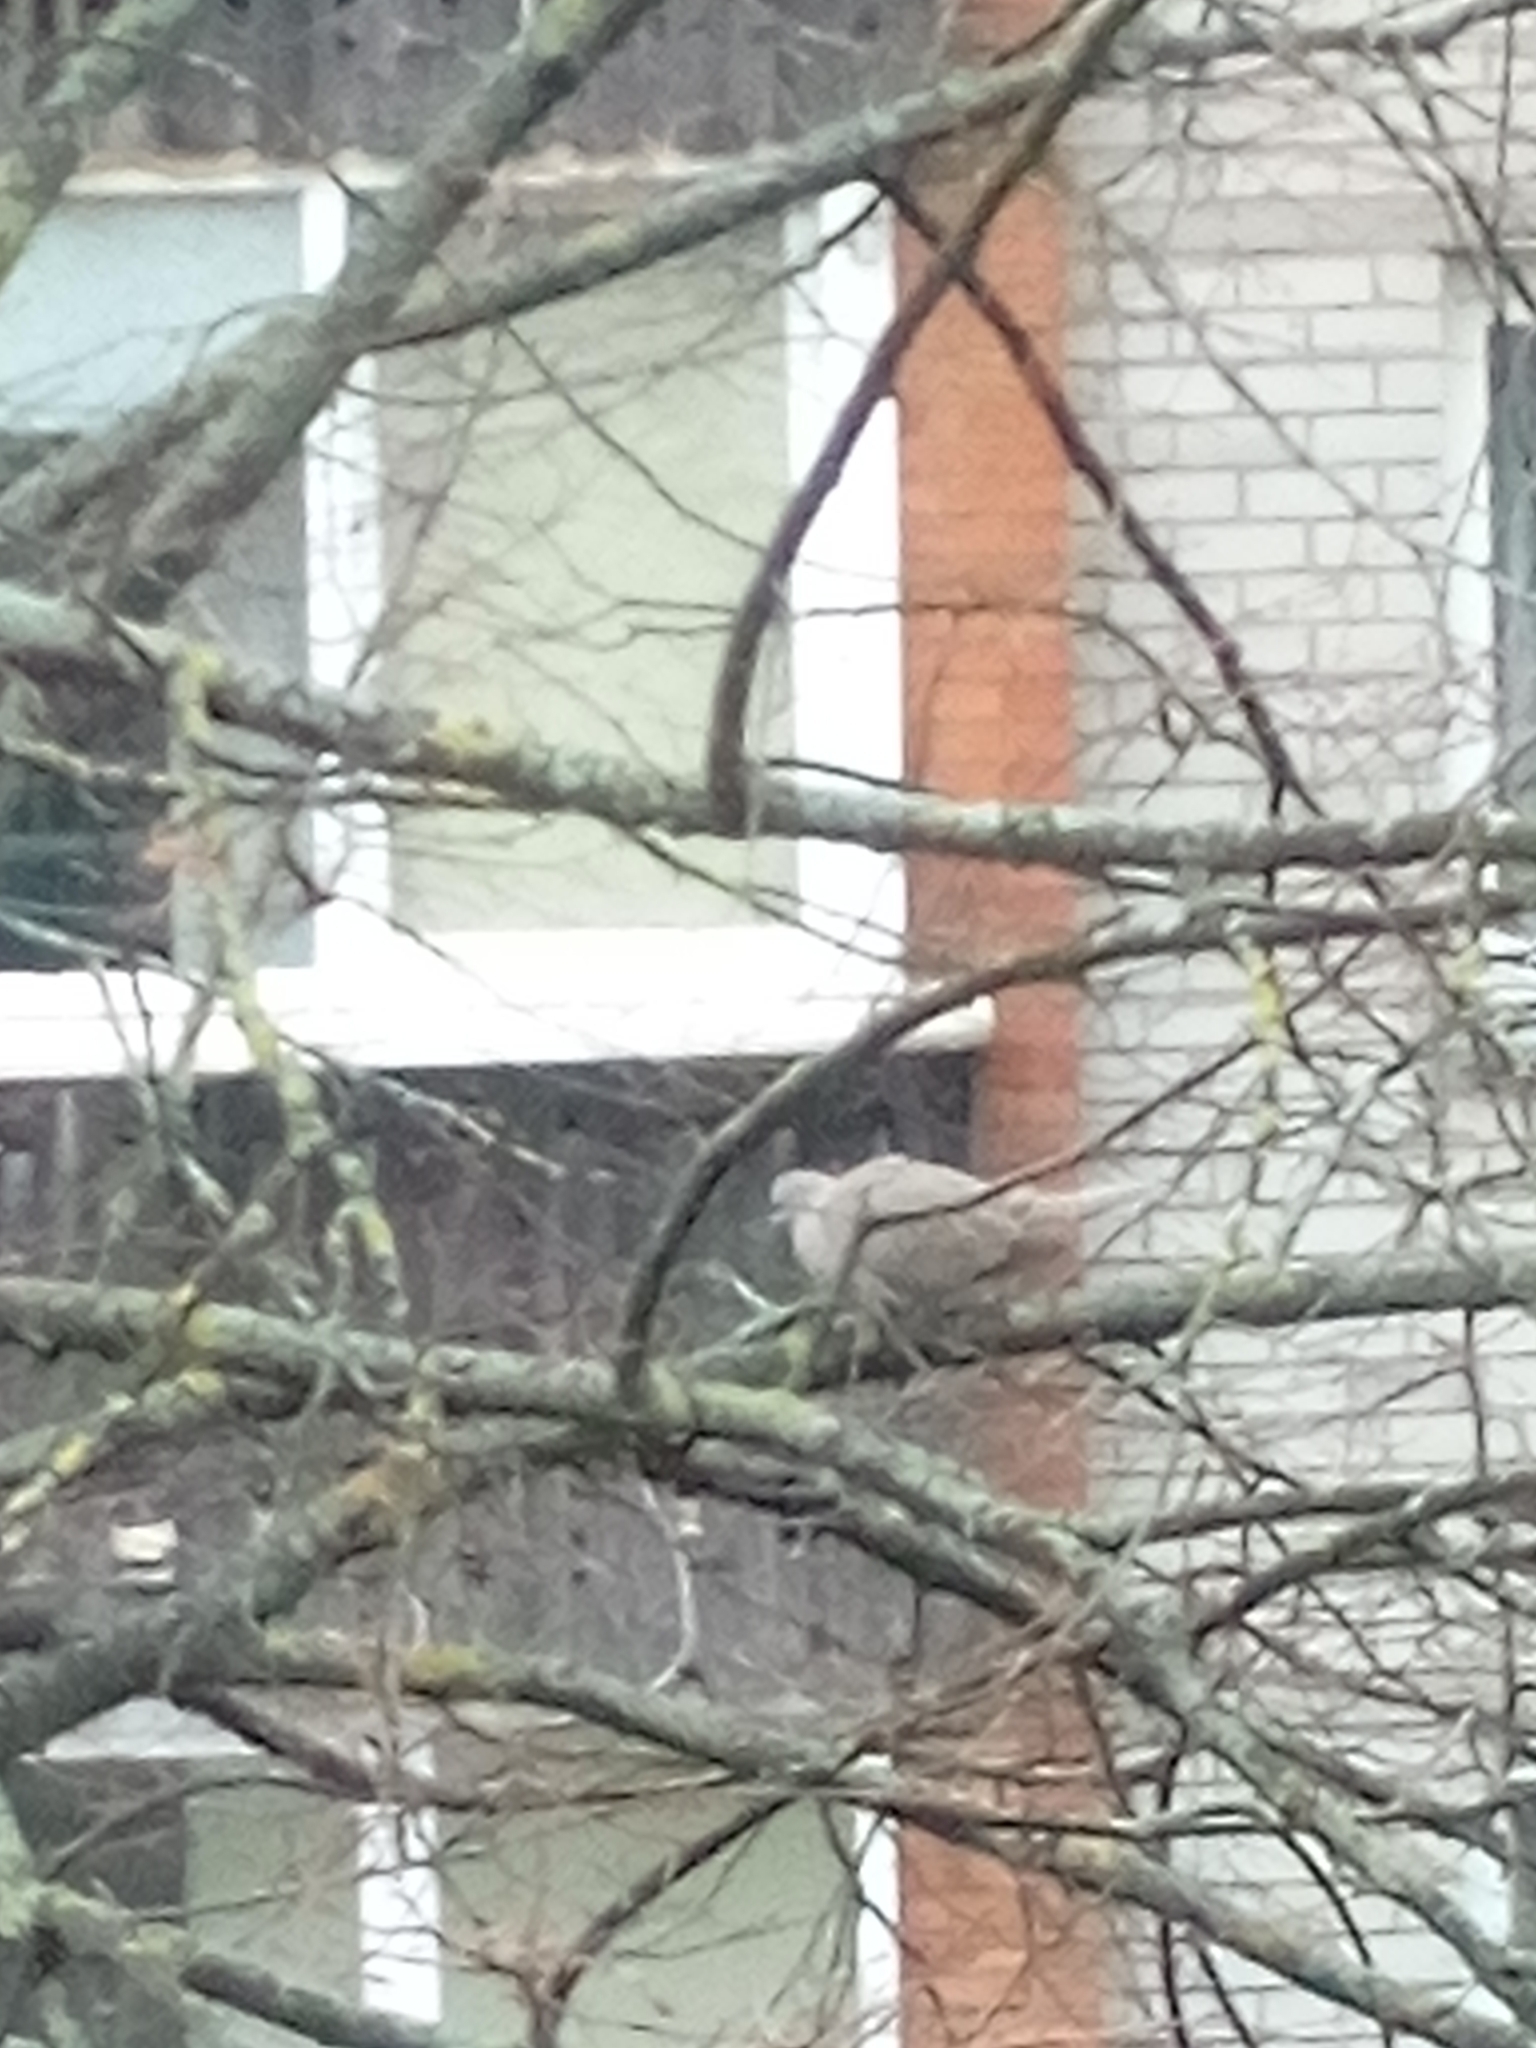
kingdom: Animalia
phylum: Chordata
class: Aves
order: Columbiformes
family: Columbidae
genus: Streptopelia
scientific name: Streptopelia decaocto
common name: Eurasian collared dove
